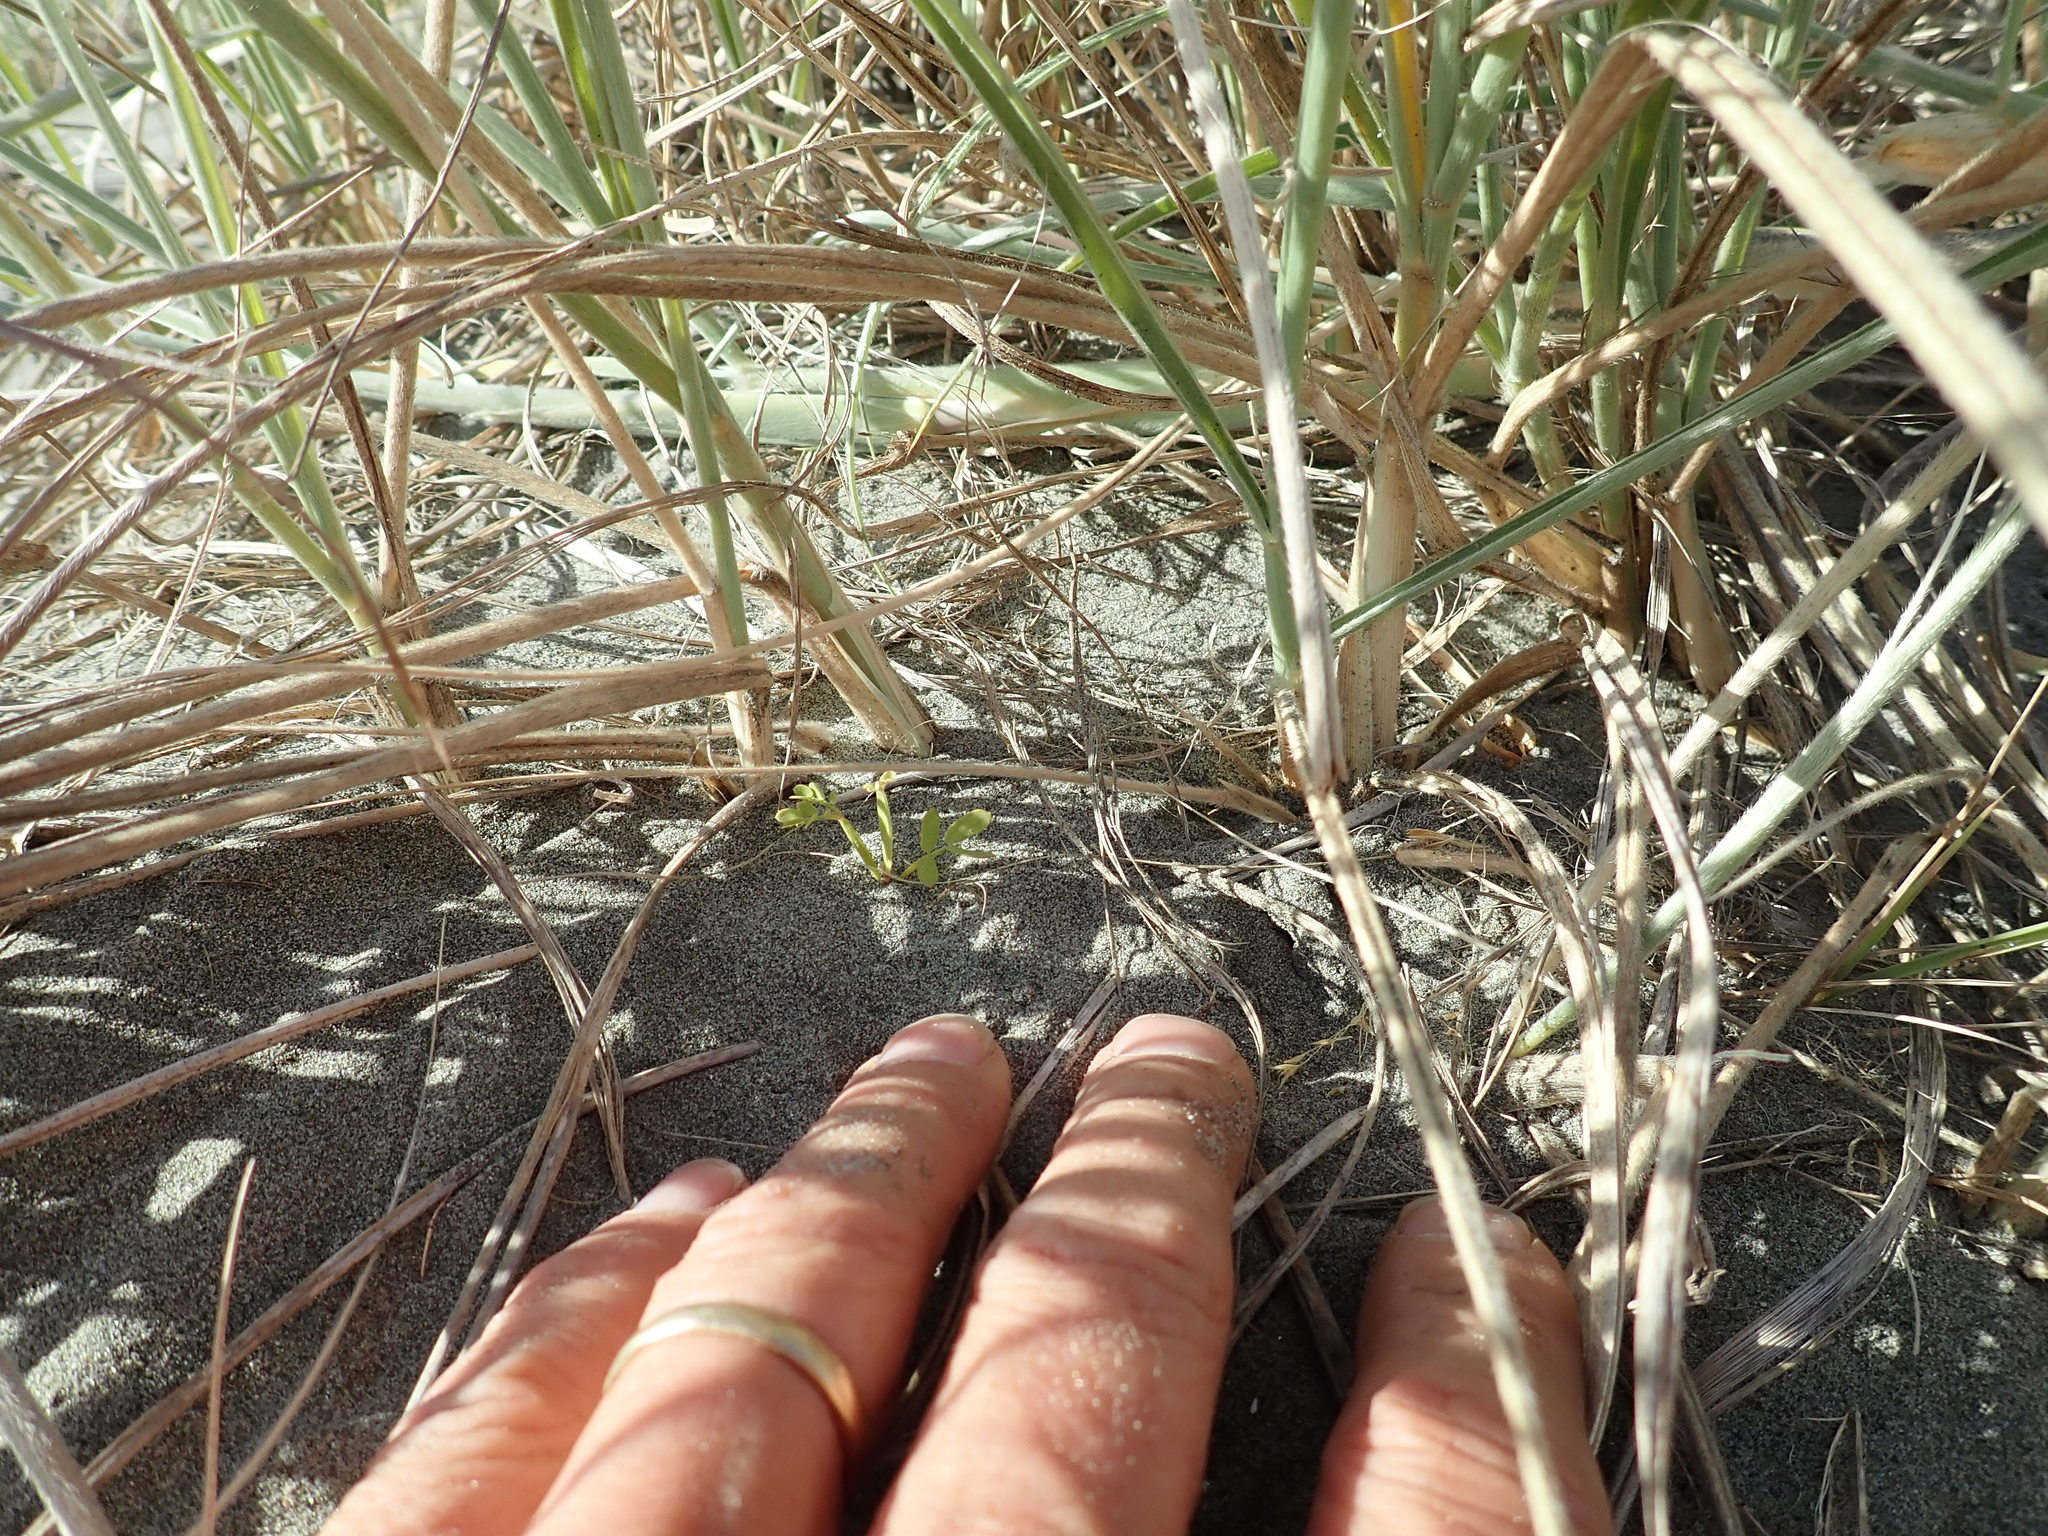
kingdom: Plantae
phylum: Tracheophyta
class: Magnoliopsida
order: Fabales
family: Fabaceae
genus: Acacia
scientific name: Acacia longifolia
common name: Sydney golden wattle
